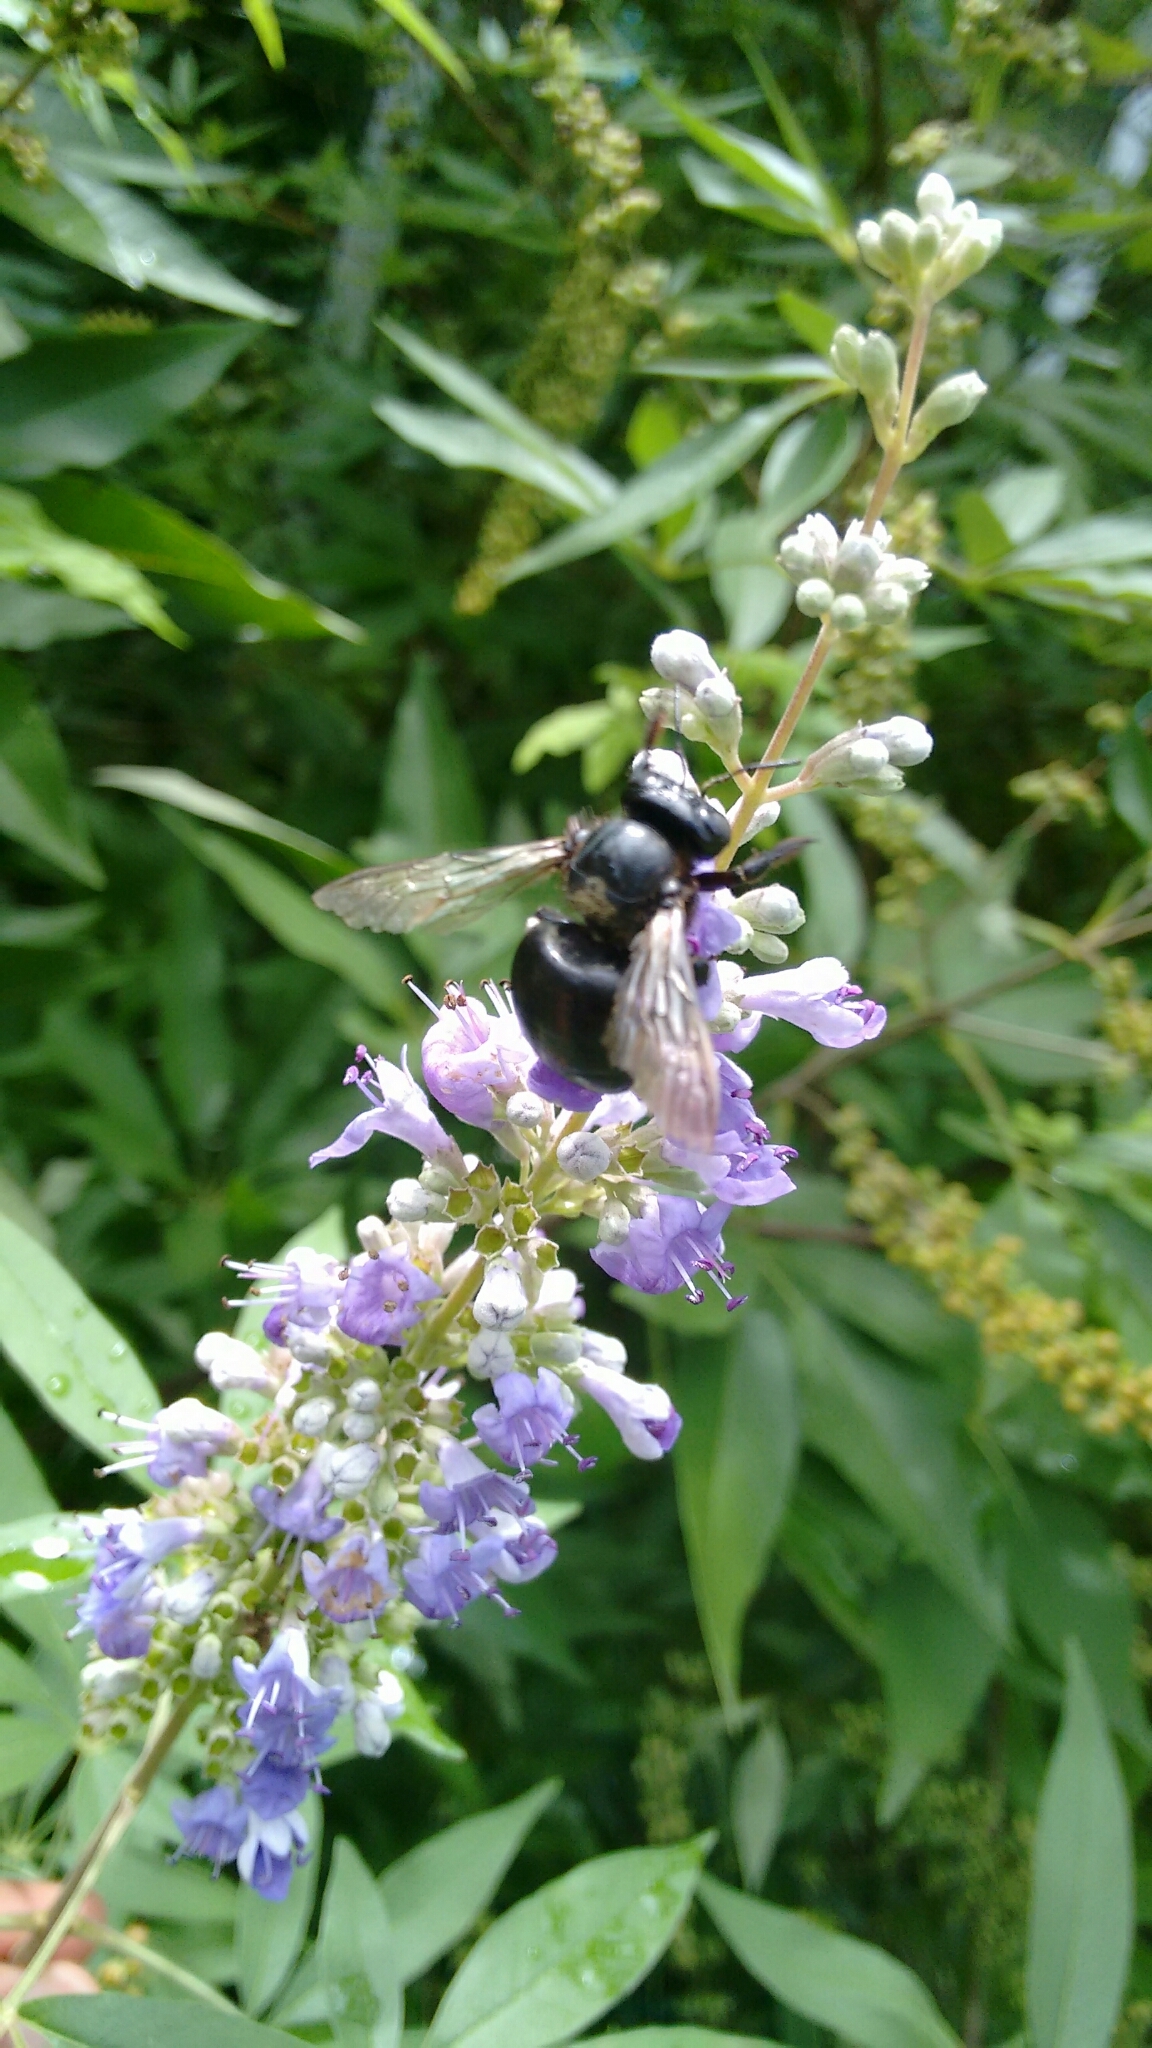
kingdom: Animalia
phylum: Arthropoda
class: Insecta
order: Hymenoptera
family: Apidae
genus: Xylocopa
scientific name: Xylocopa micans
